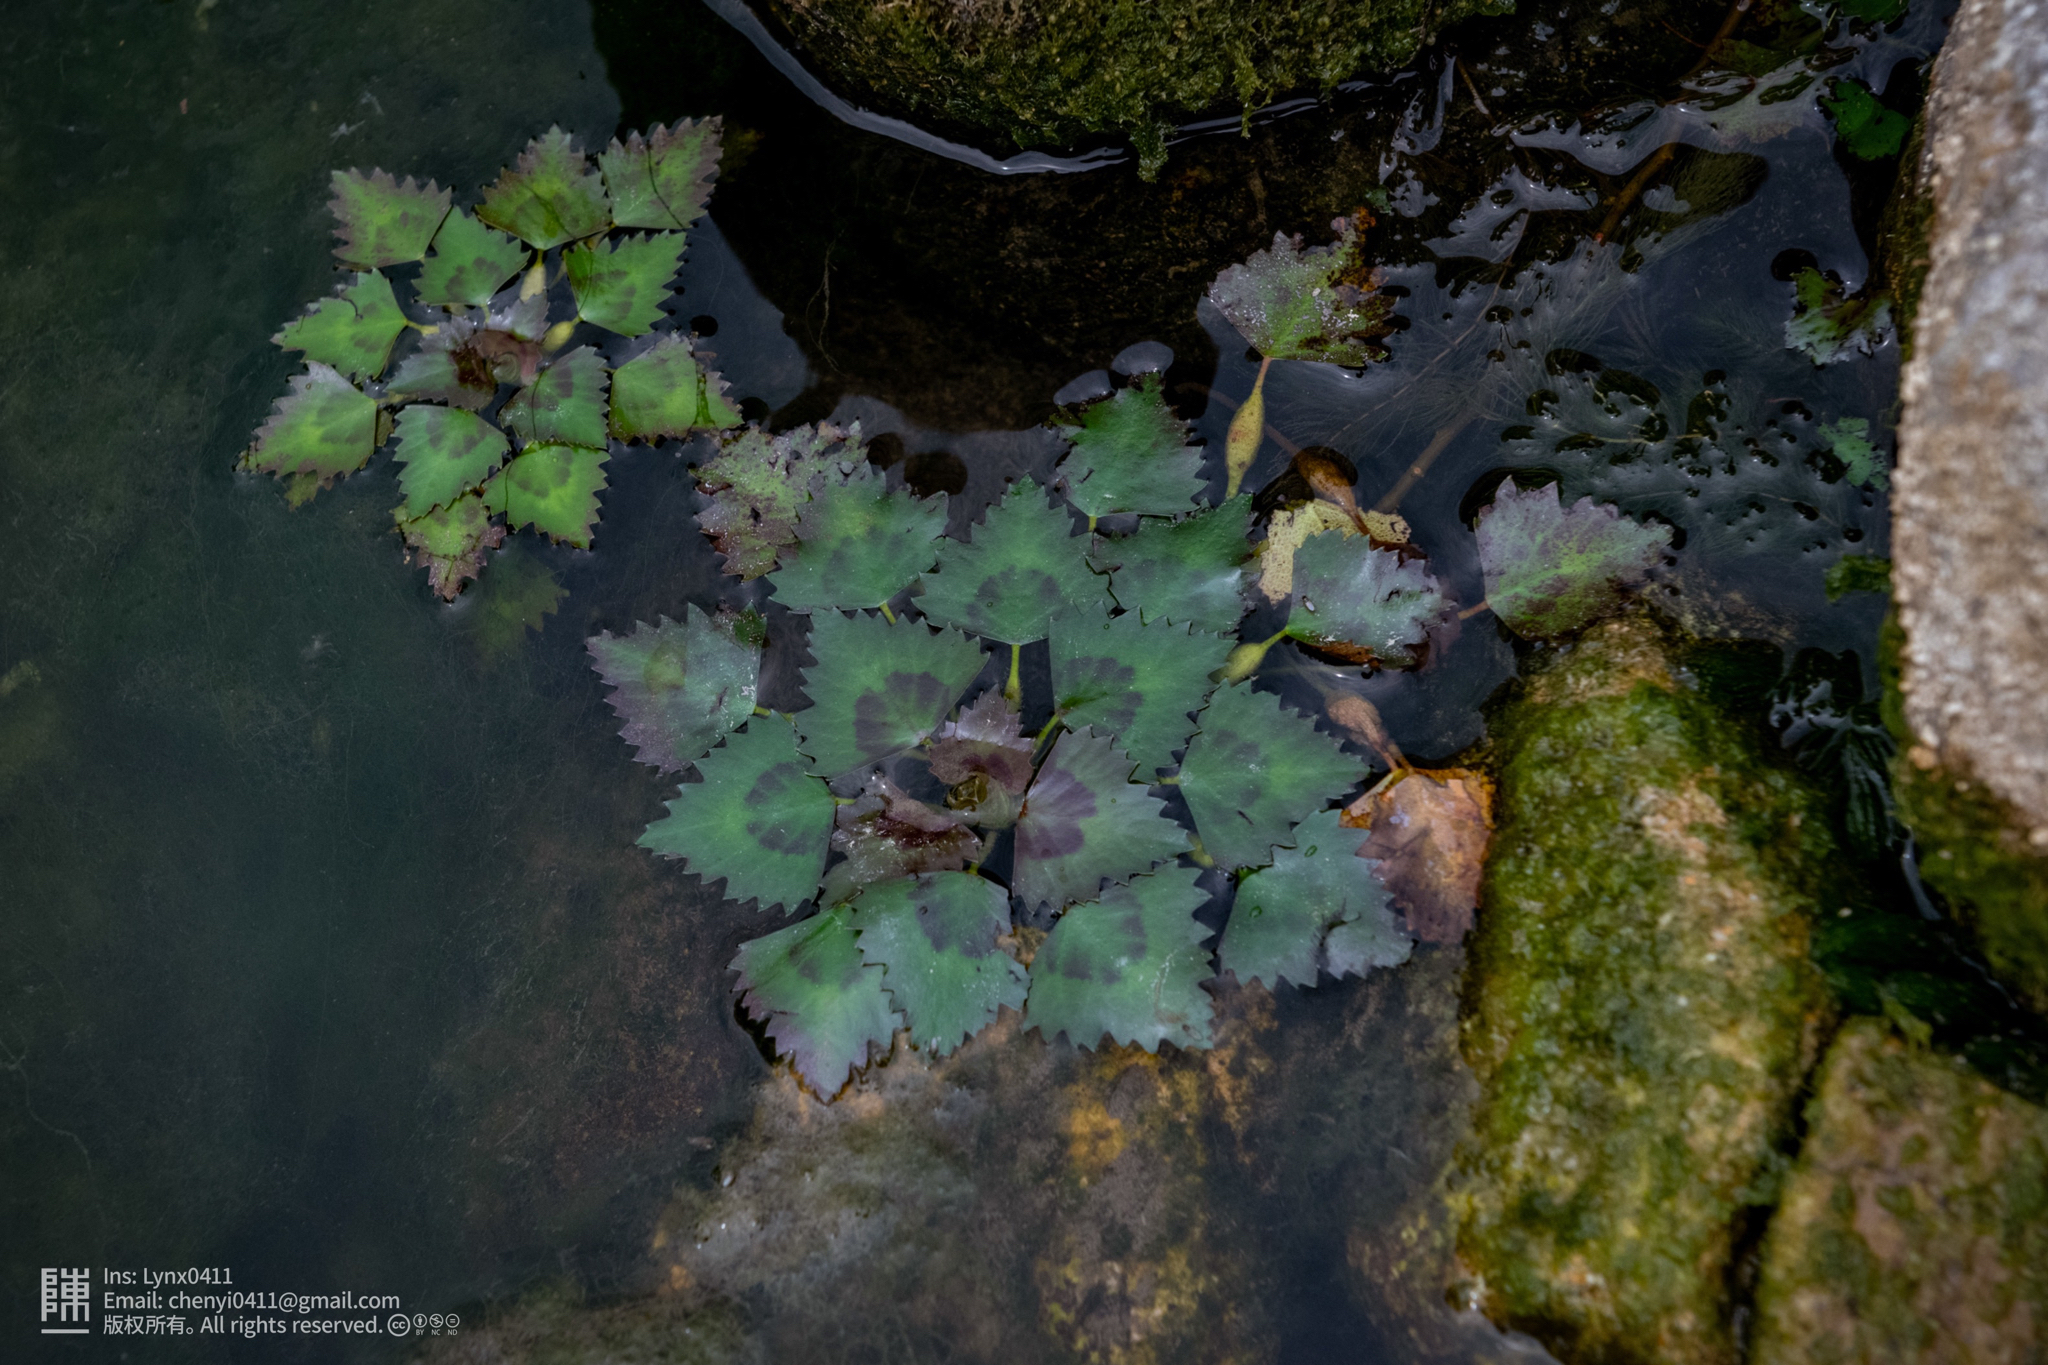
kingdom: Plantae
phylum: Tracheophyta
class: Magnoliopsida
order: Myrtales
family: Lythraceae
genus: Trapa
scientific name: Trapa incisa
